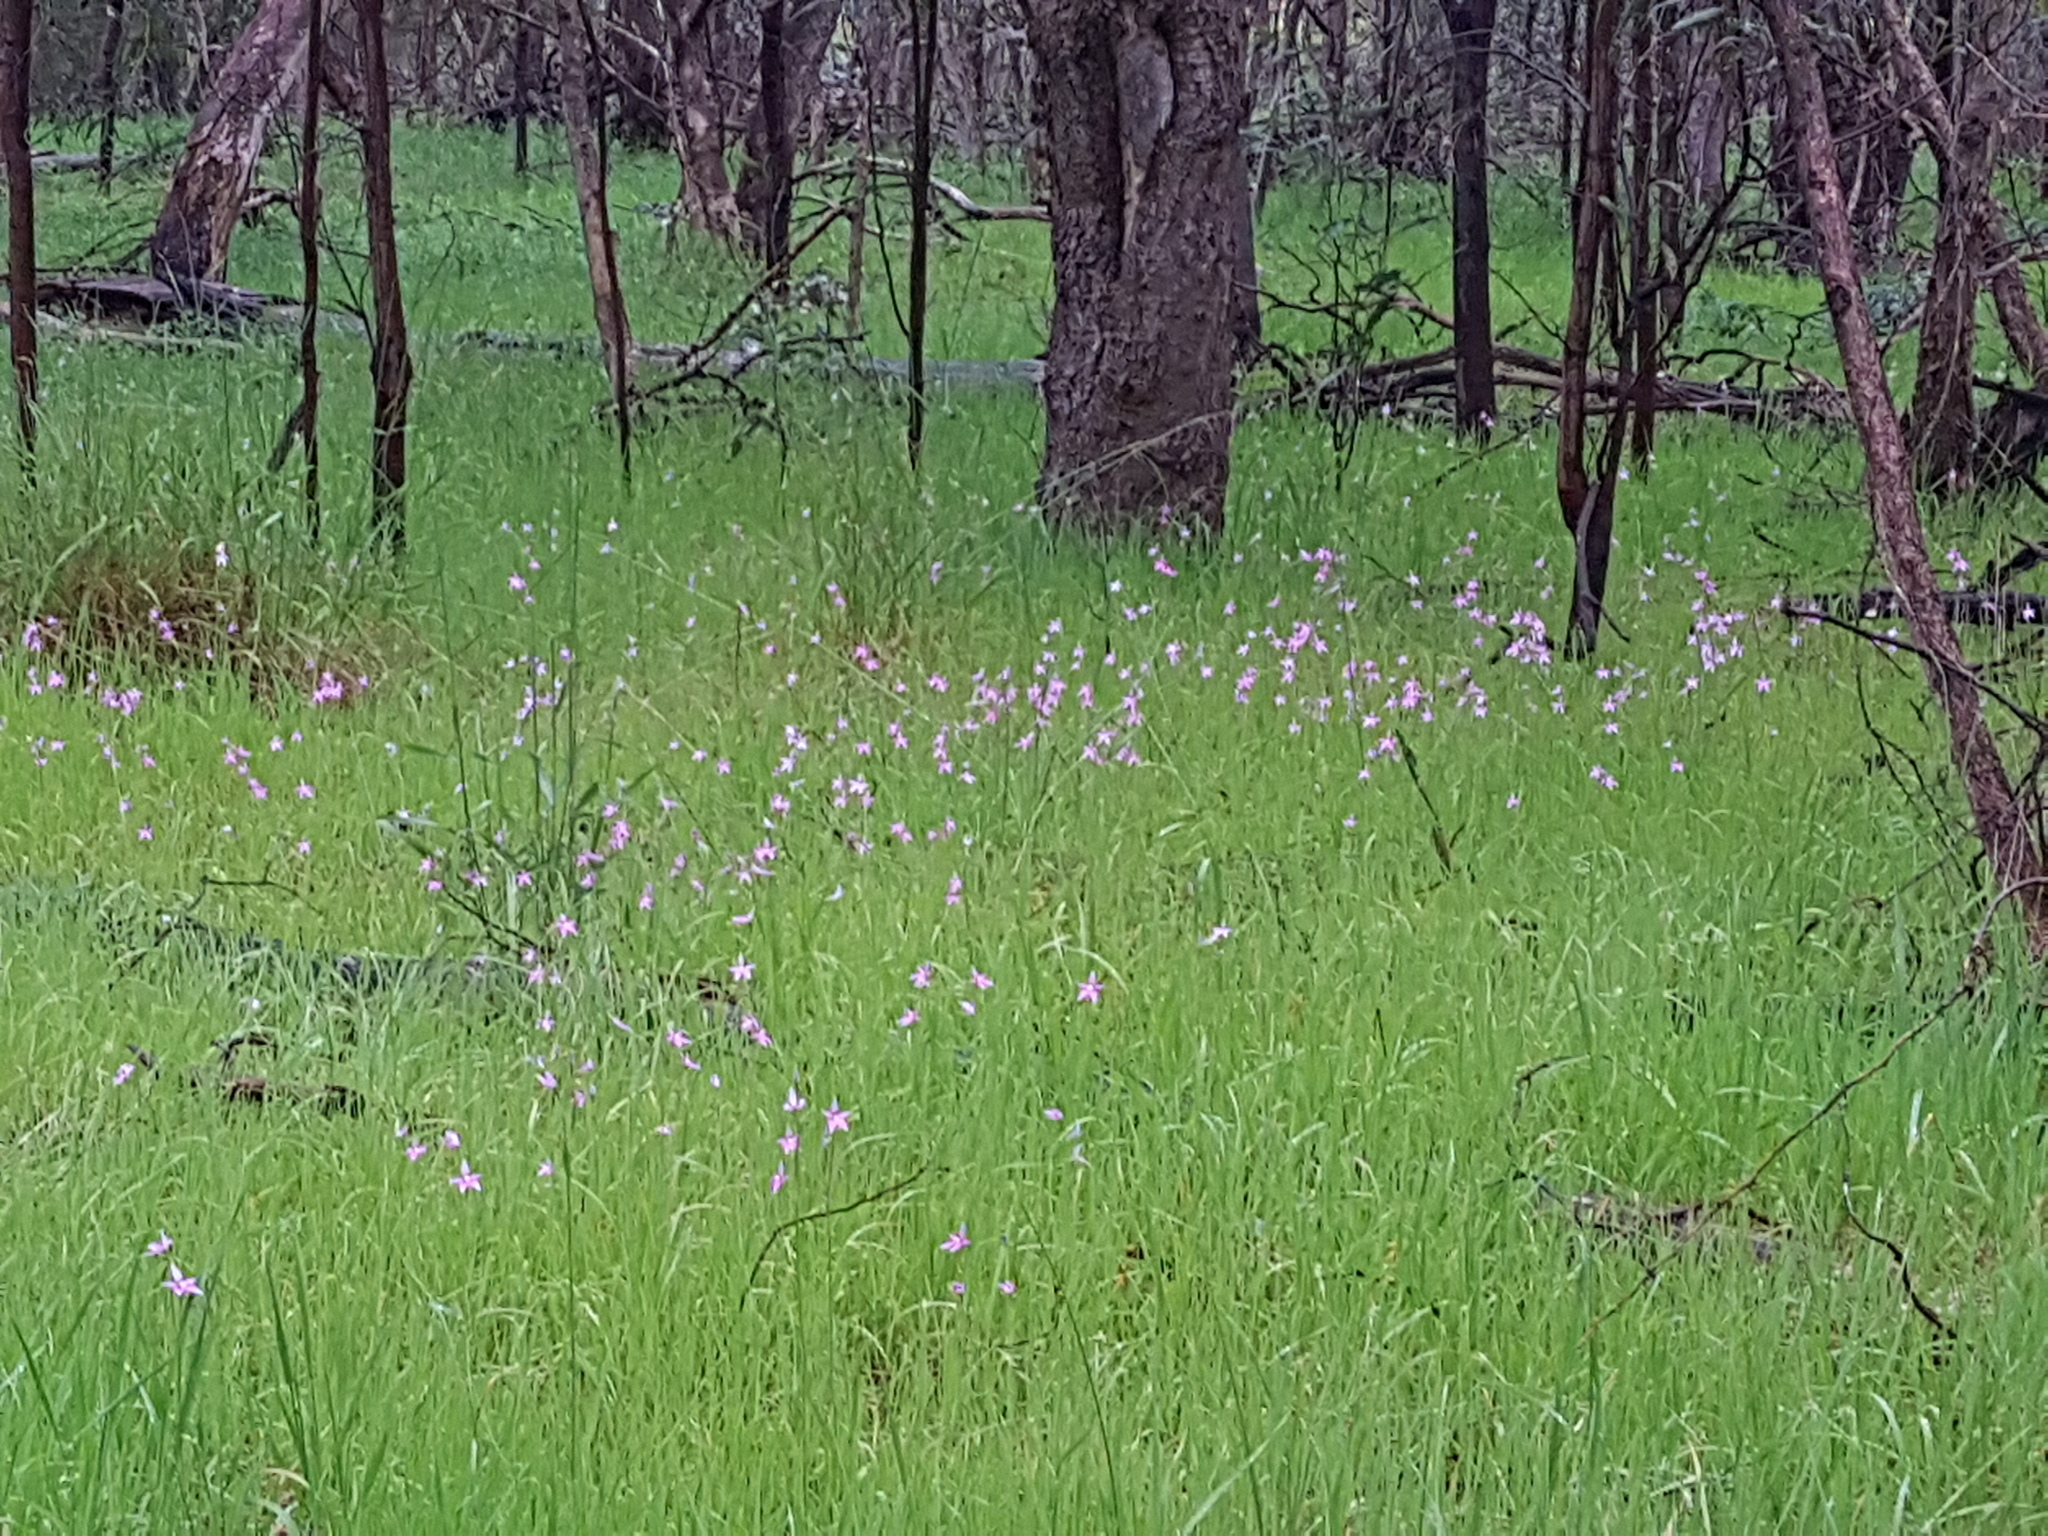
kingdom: Plantae
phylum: Tracheophyta
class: Liliopsida
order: Asparagales
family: Orchidaceae
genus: Caladenia
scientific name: Caladenia latifolia
